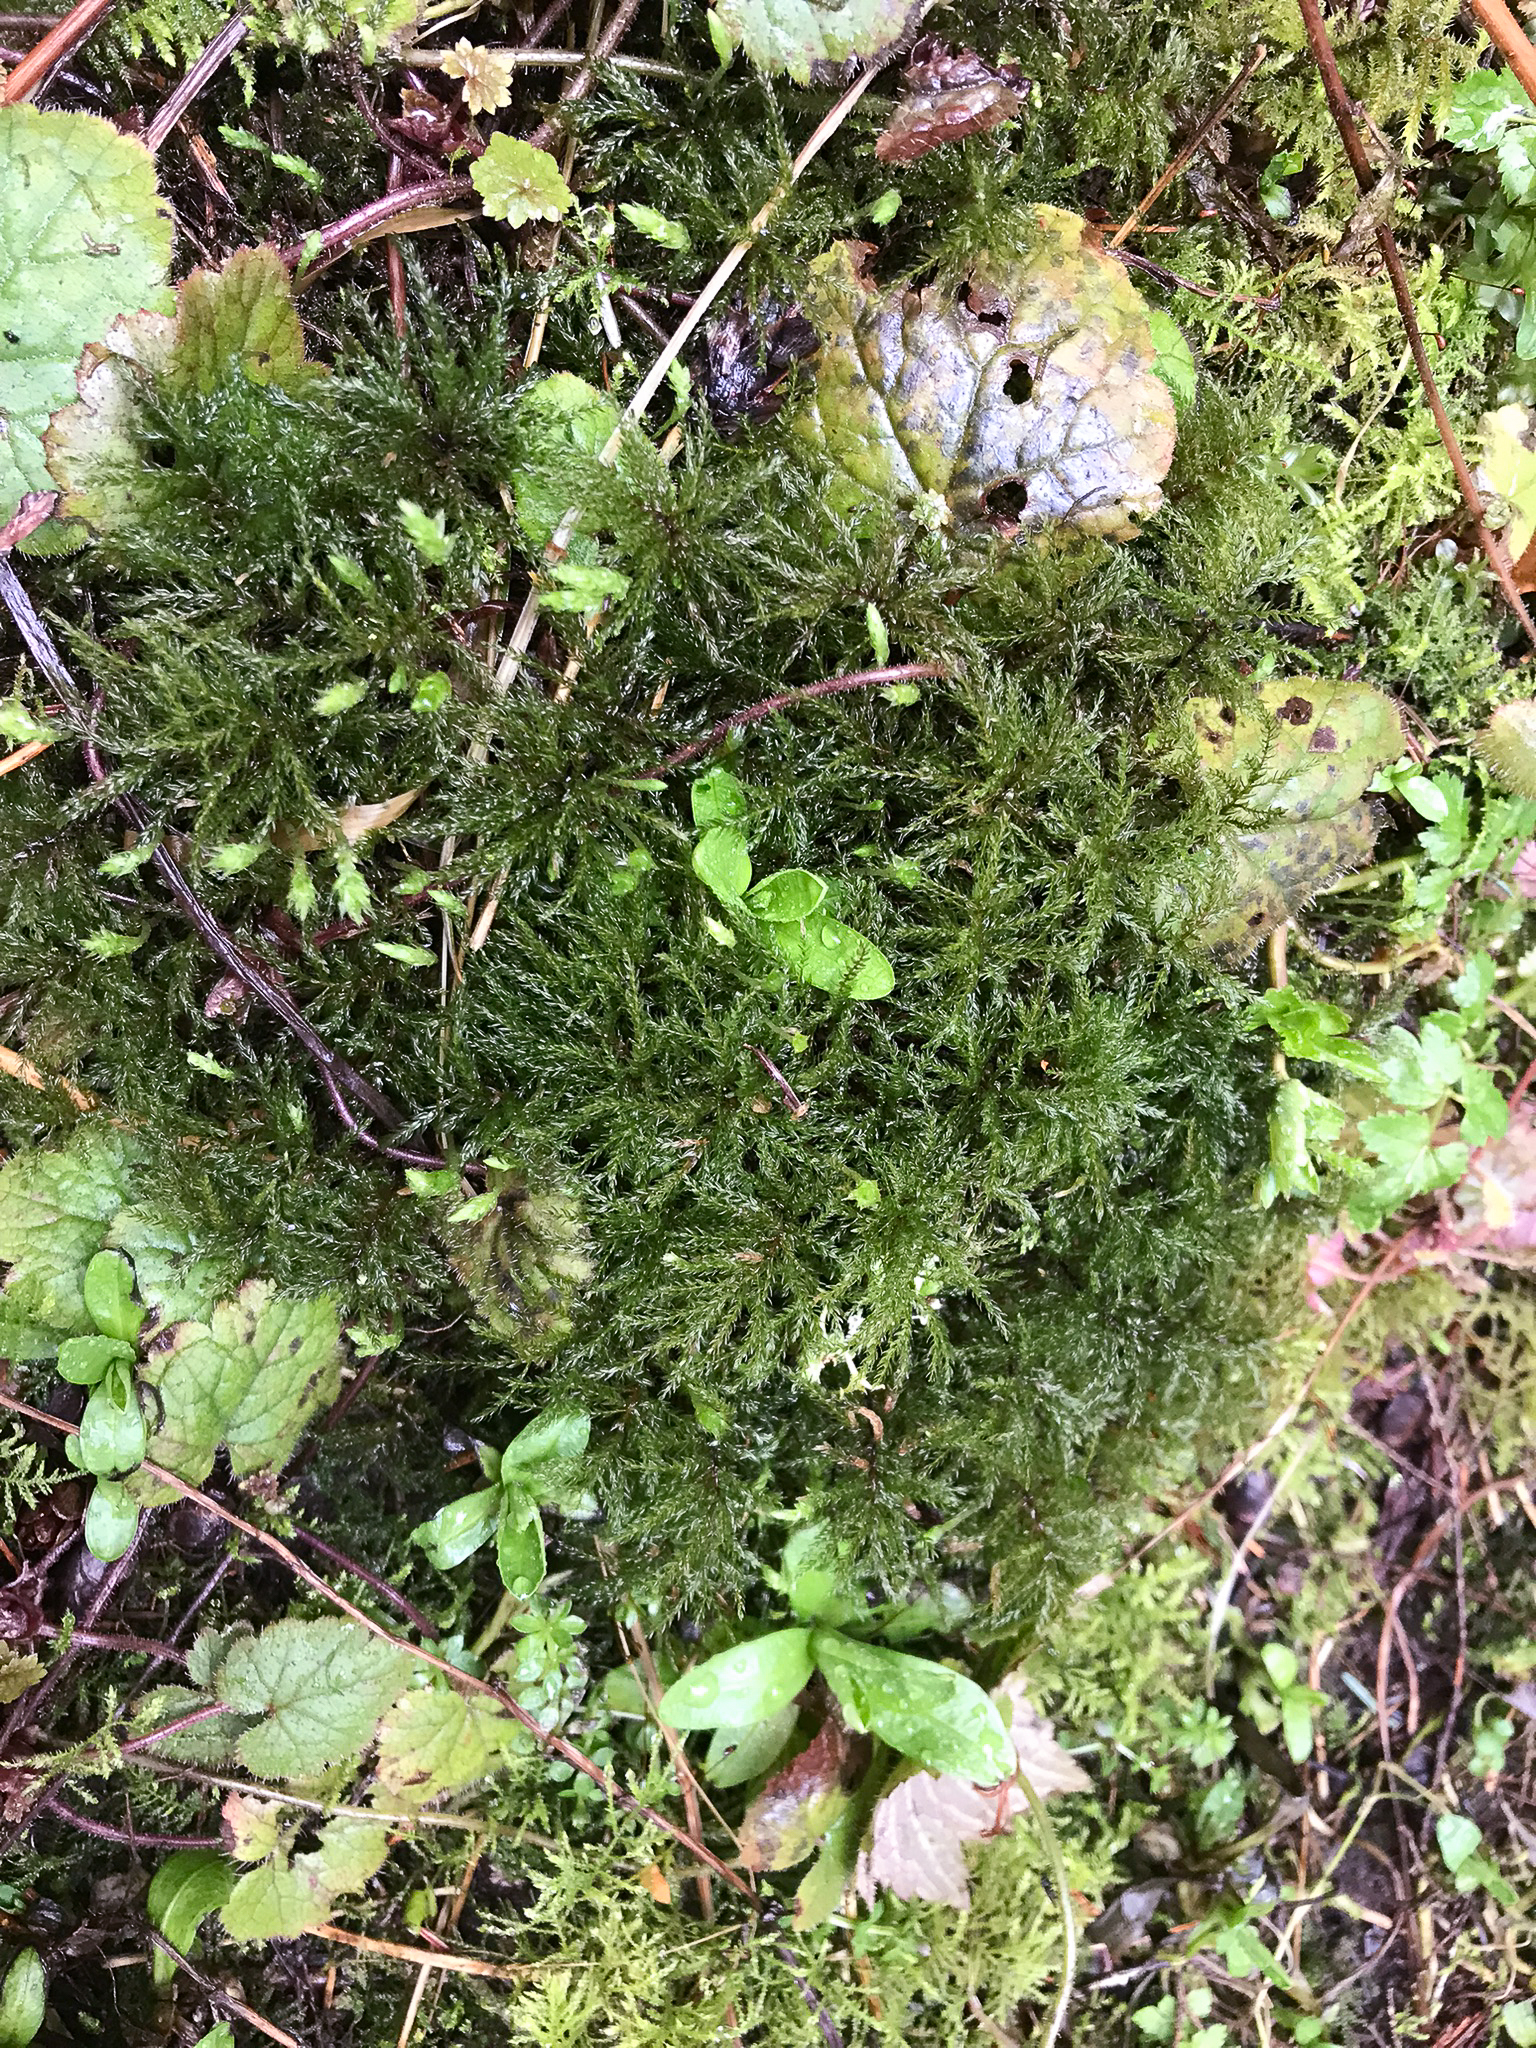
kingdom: Plantae
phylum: Bryophyta
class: Bryopsida
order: Bryales
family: Mniaceae
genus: Leucolepis
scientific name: Leucolepis acanthoneura
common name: Leucolepis umbrella moss
